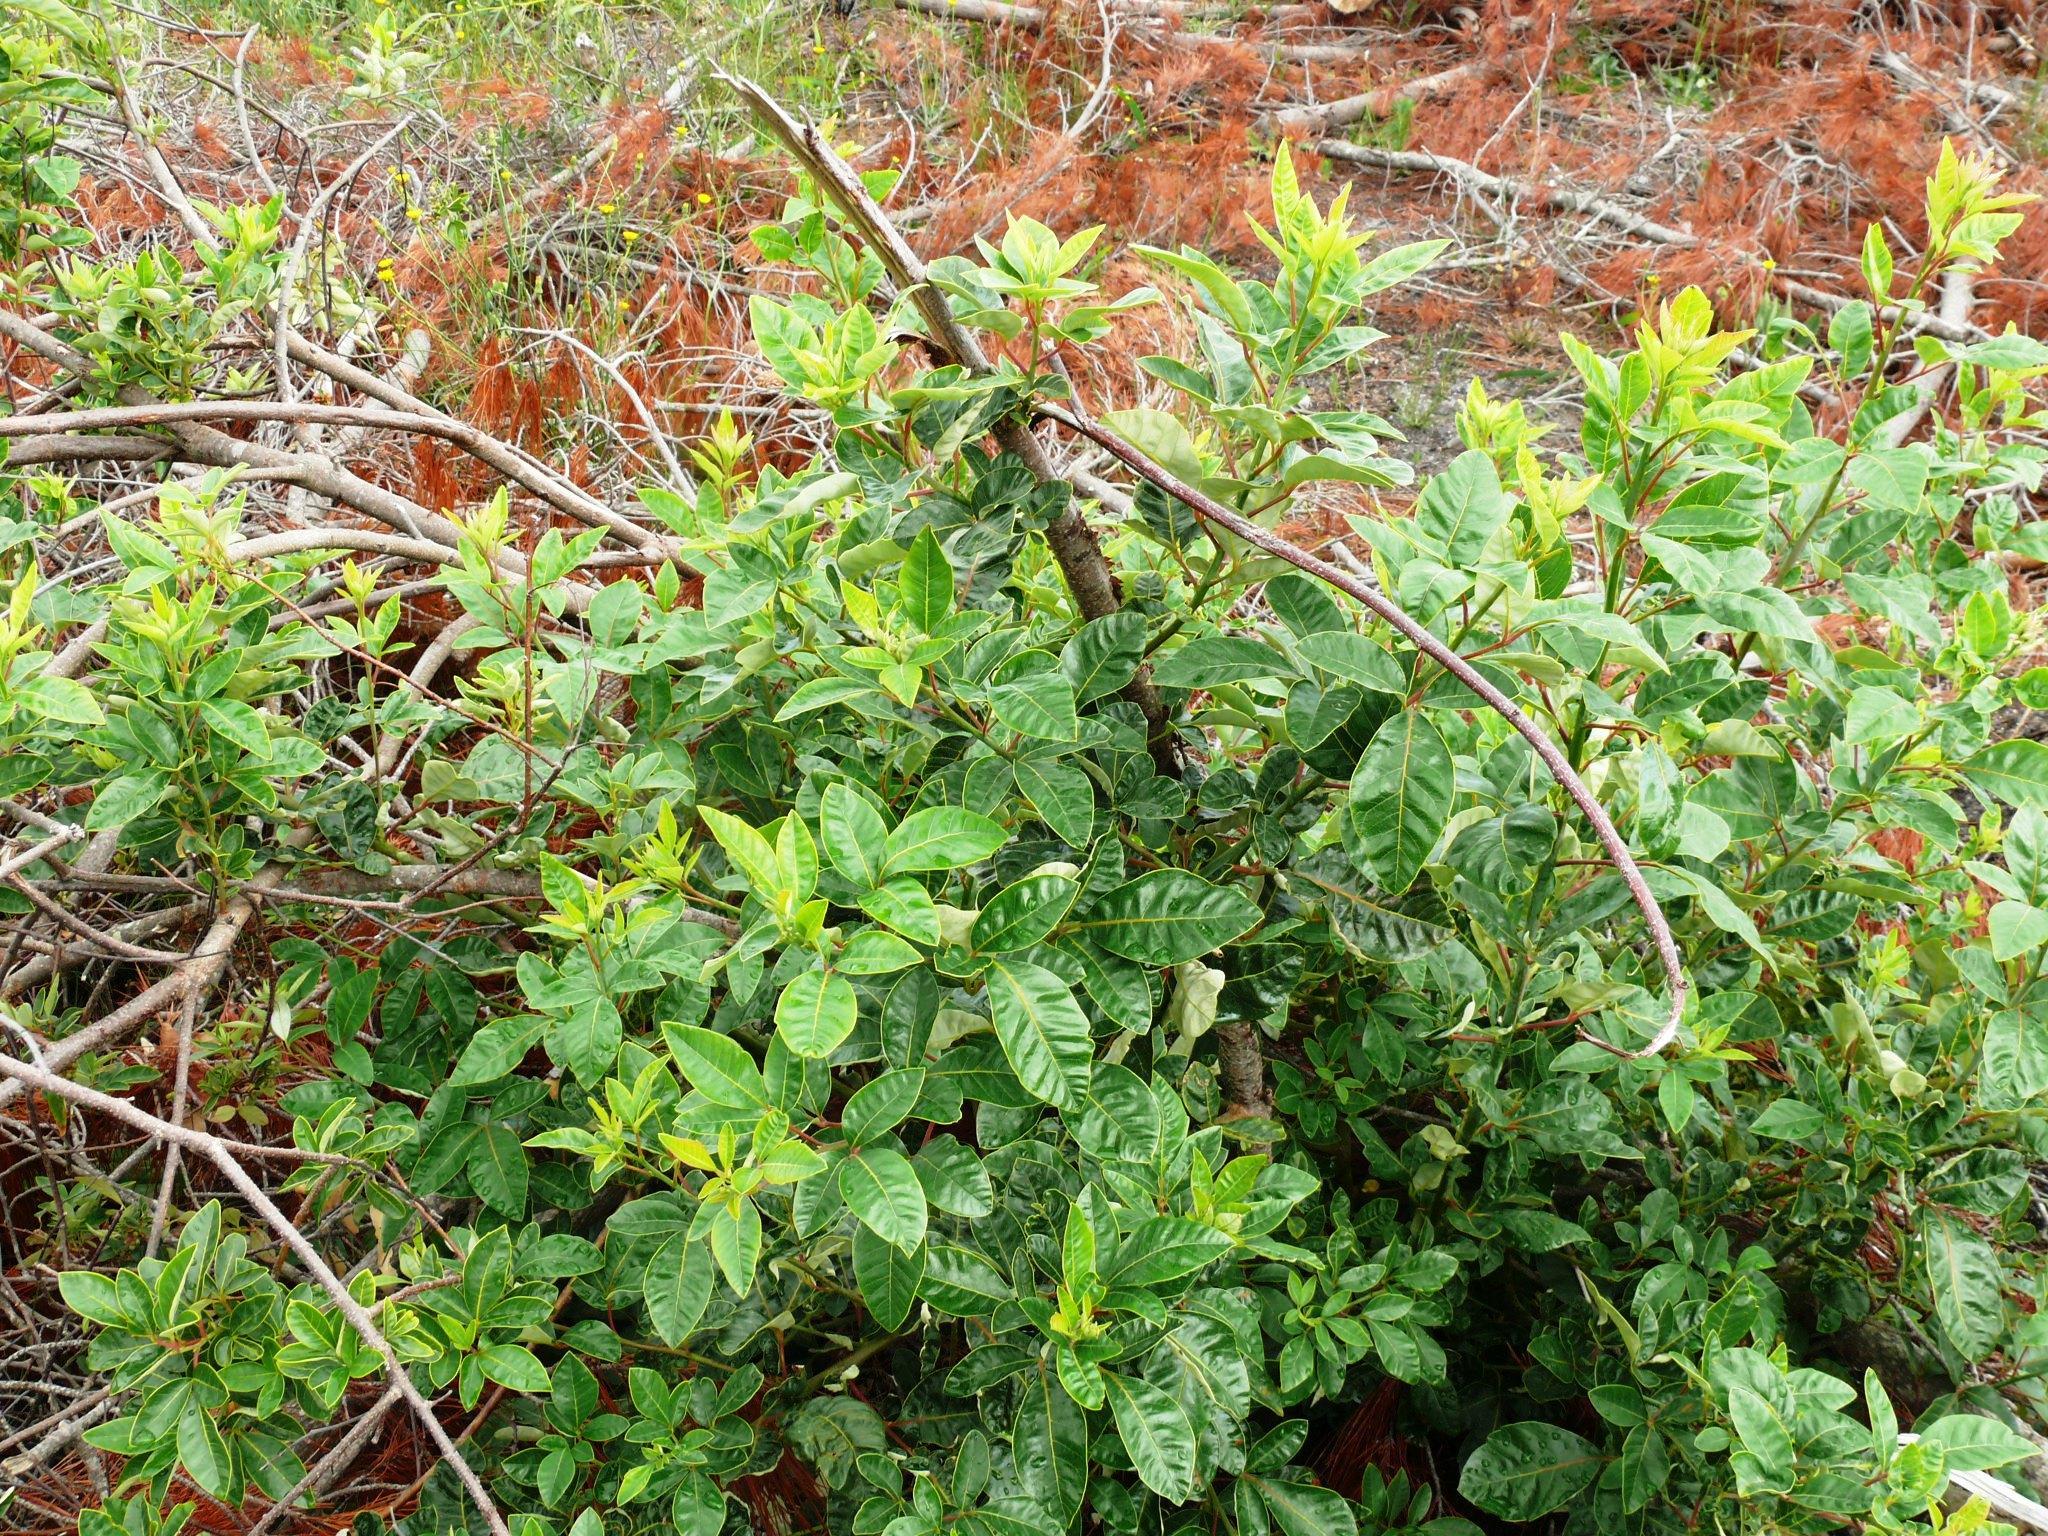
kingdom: Plantae
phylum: Tracheophyta
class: Magnoliopsida
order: Sapindales
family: Anacardiaceae
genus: Searsia
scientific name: Searsia tomentosa
